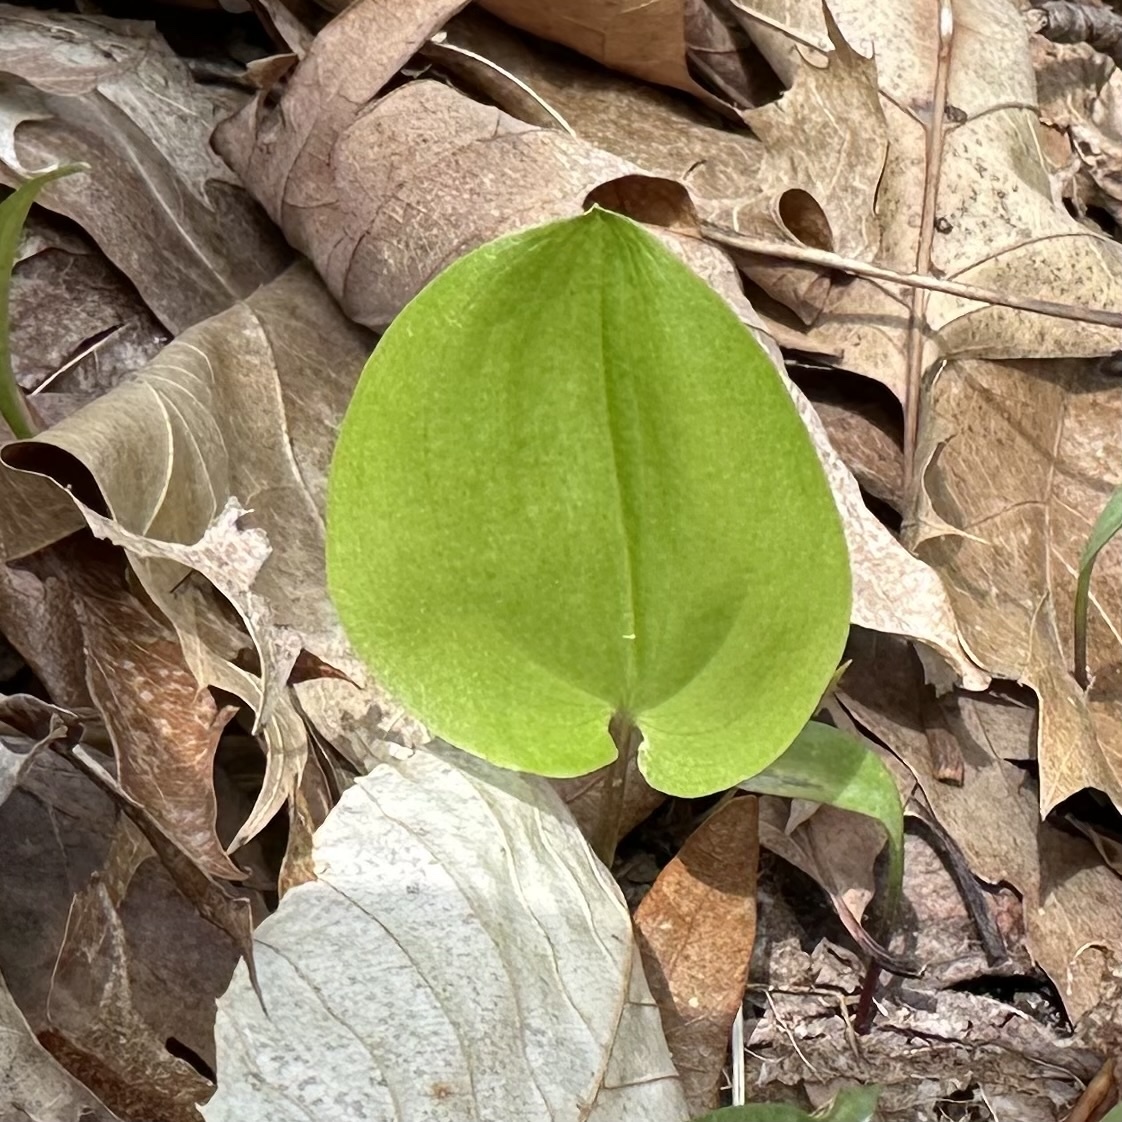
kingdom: Plantae
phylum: Tracheophyta
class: Liliopsida
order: Asparagales
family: Asparagaceae
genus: Maianthemum
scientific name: Maianthemum canadense
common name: False lily-of-the-valley
